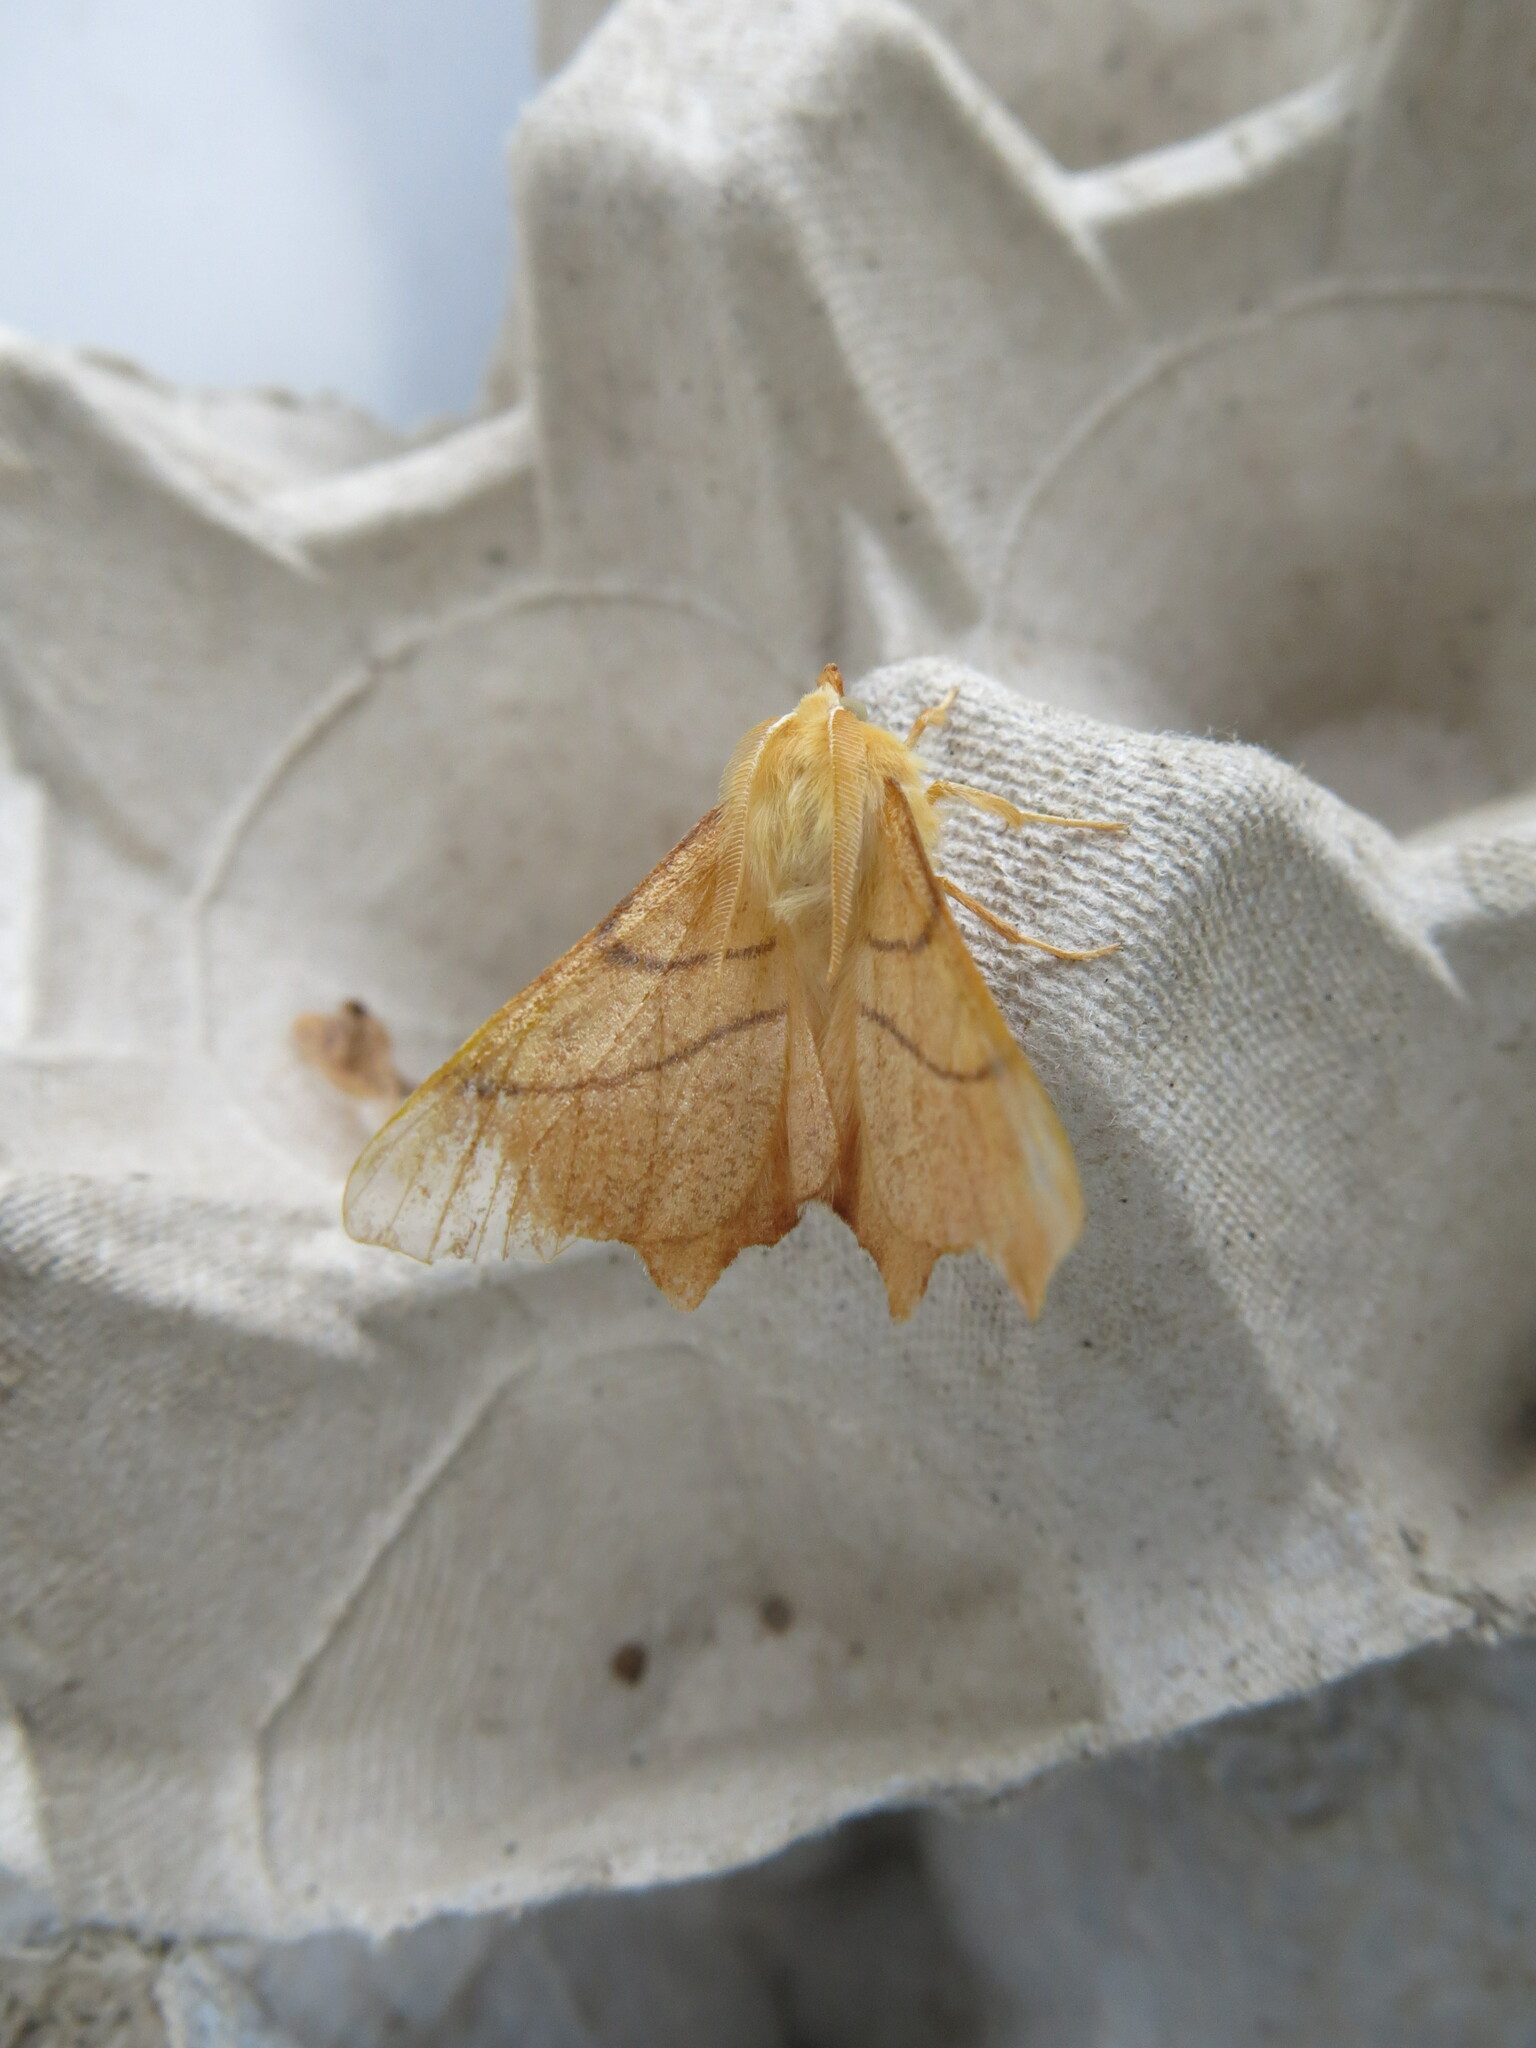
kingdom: Animalia
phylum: Arthropoda
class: Insecta
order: Lepidoptera
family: Geometridae
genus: Ennomos
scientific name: Ennomos erosaria
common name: September thorn
